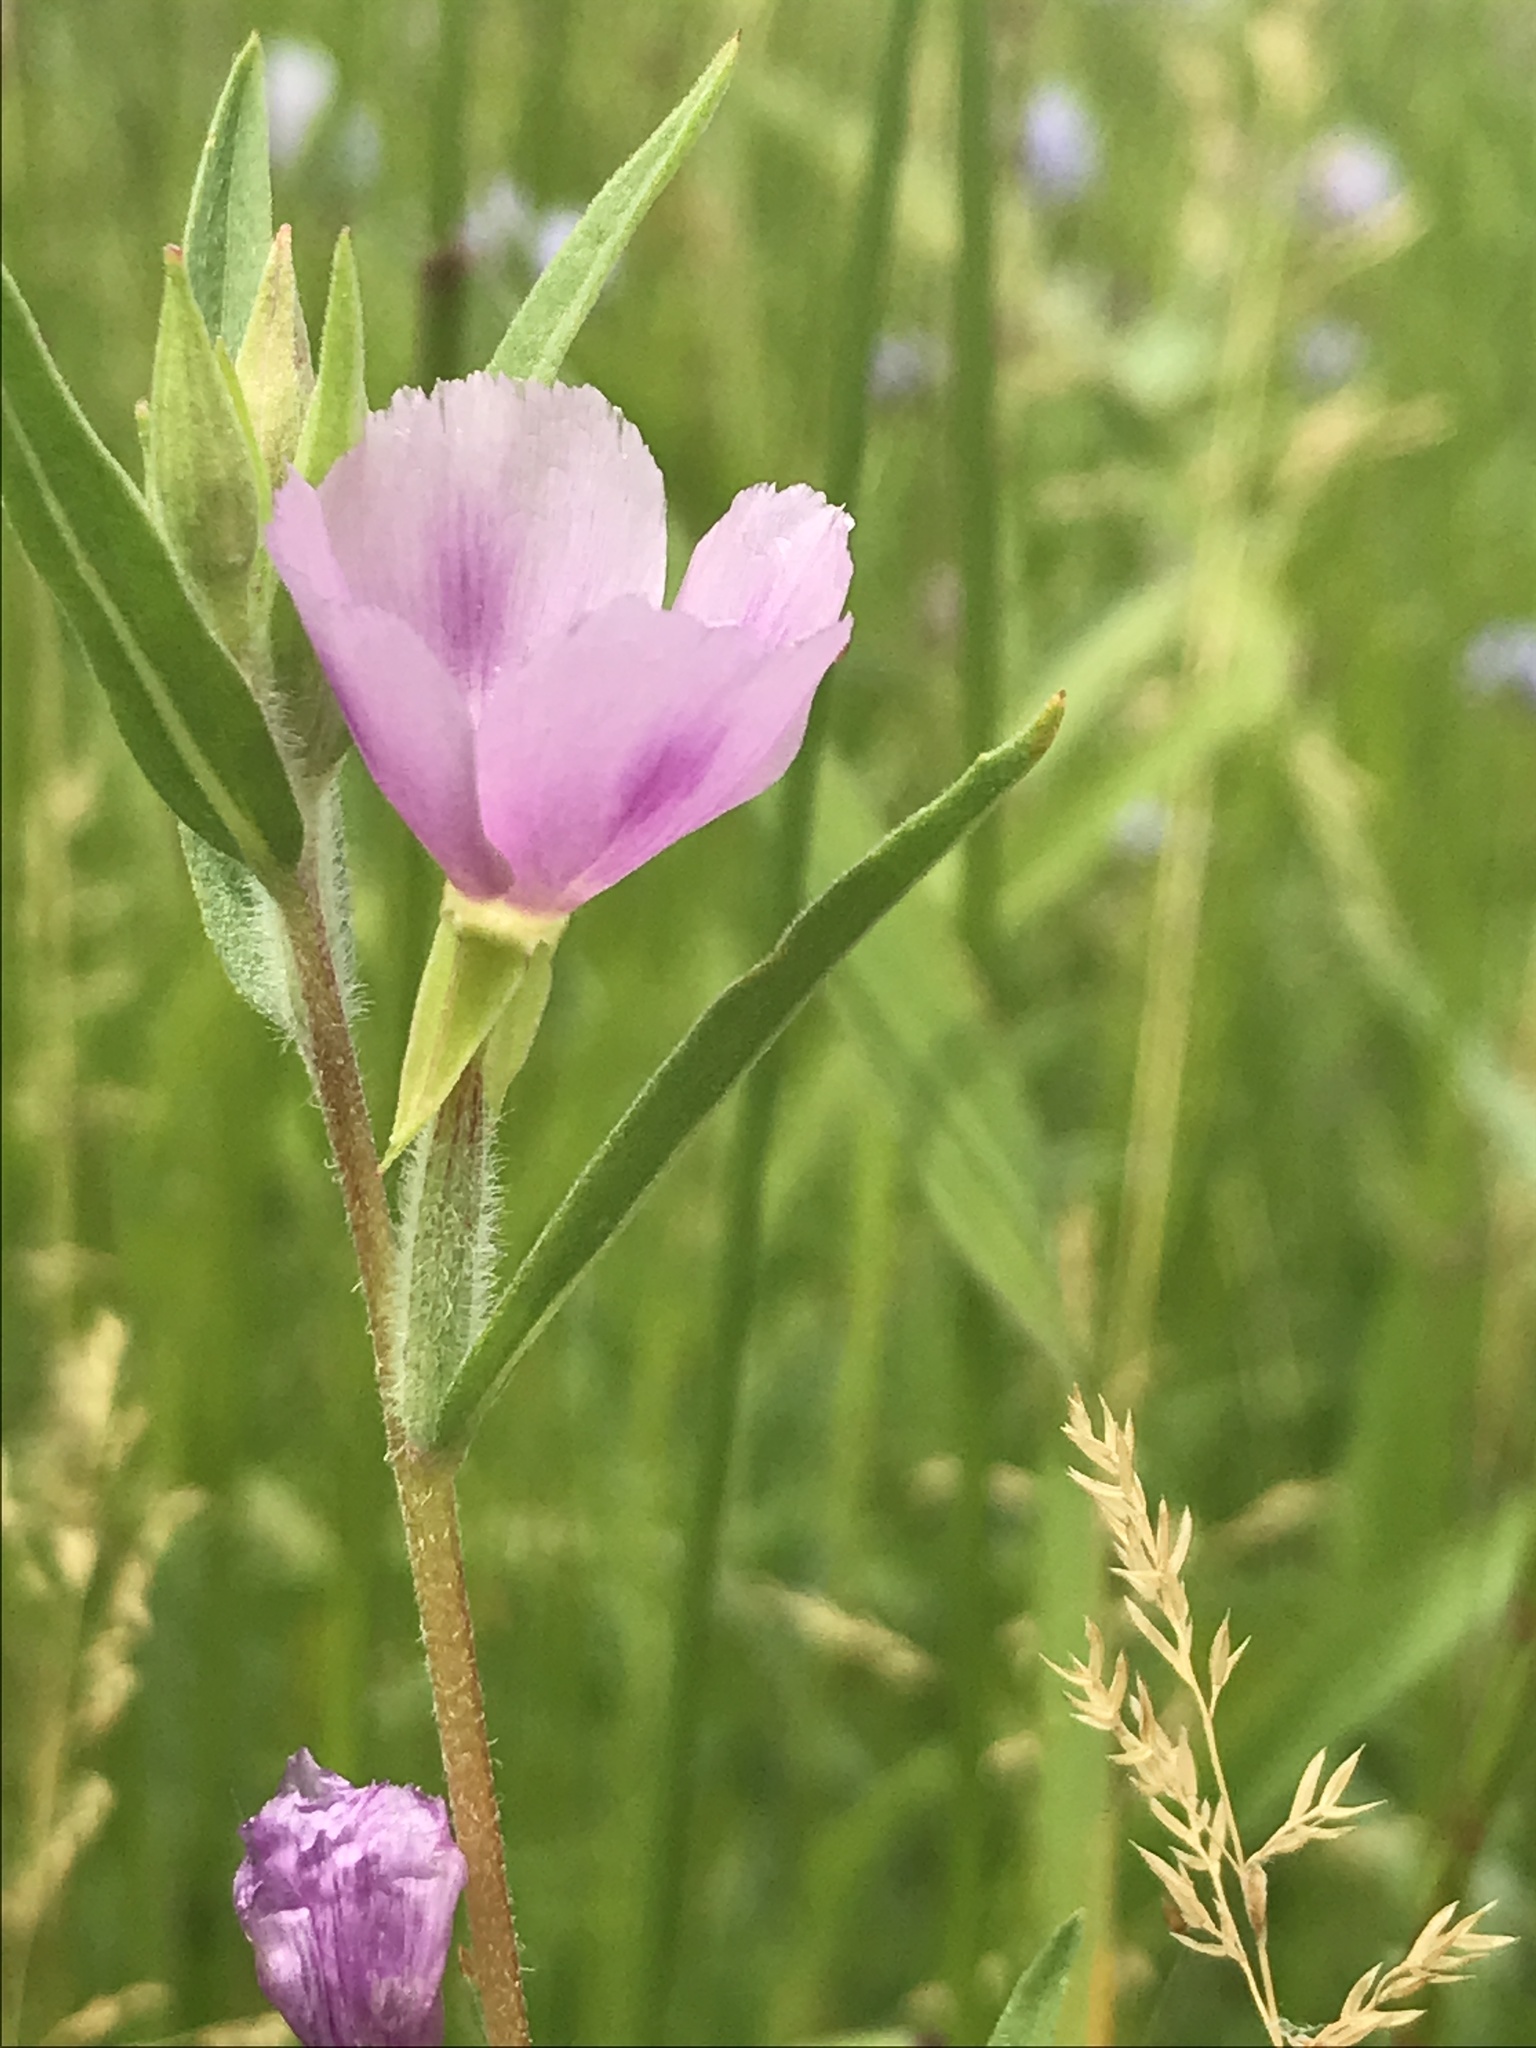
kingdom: Plantae
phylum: Tracheophyta
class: Magnoliopsida
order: Myrtales
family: Onagraceae
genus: Clarkia
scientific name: Clarkia purpurea
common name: Purple clarkia
